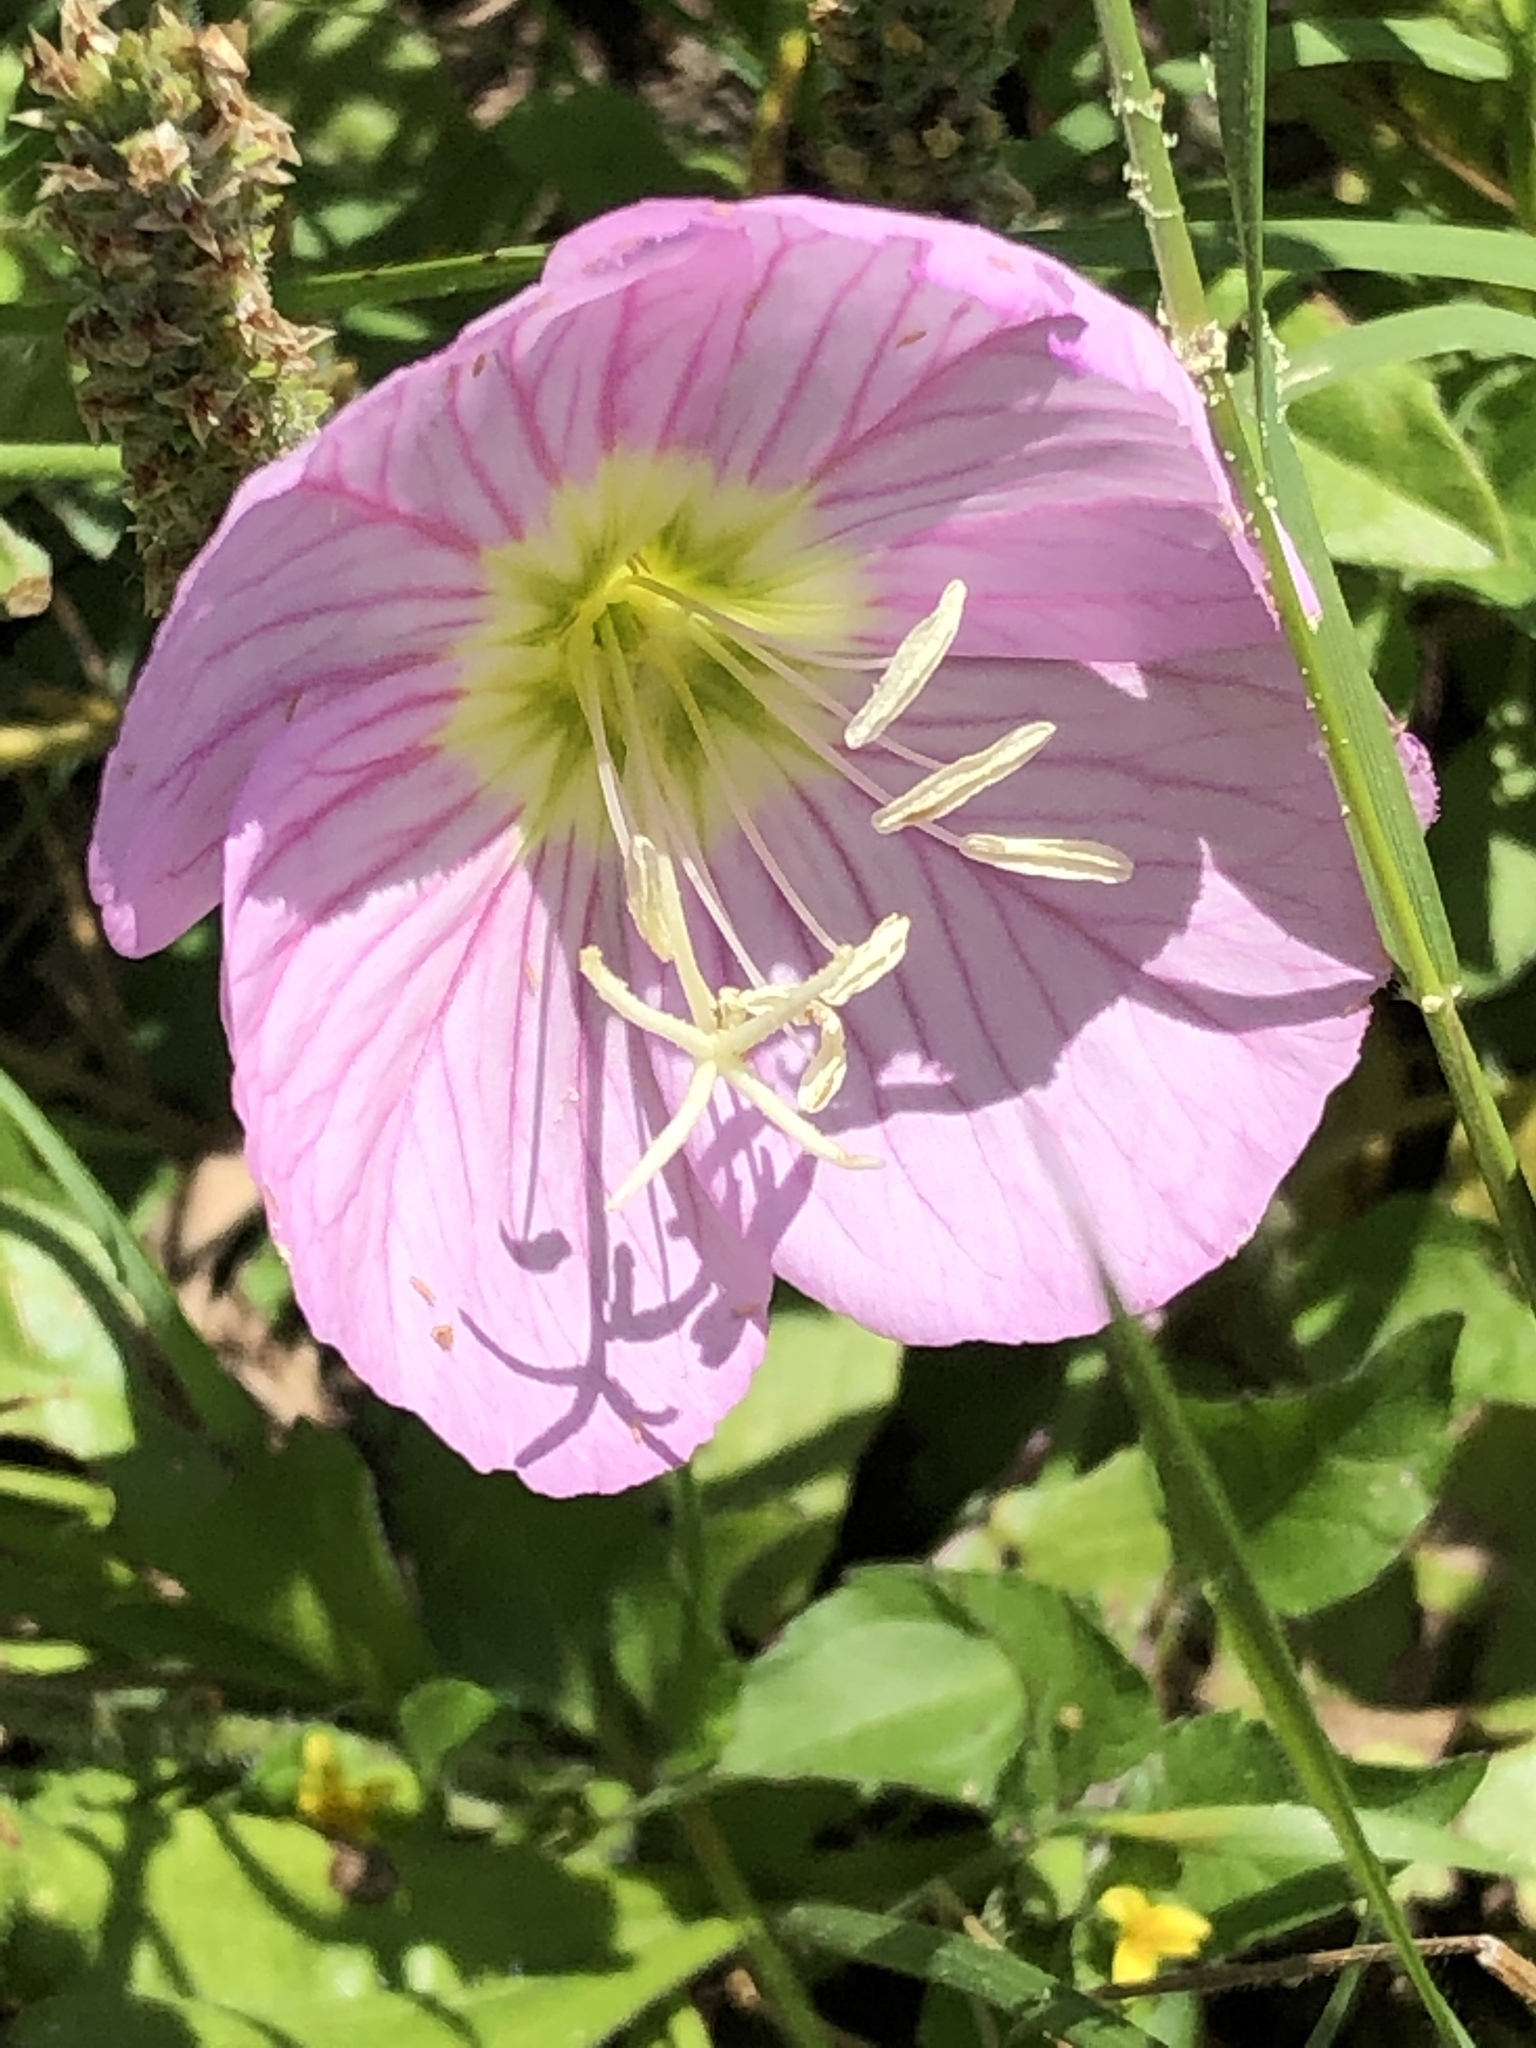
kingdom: Plantae
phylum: Tracheophyta
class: Magnoliopsida
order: Myrtales
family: Onagraceae
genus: Oenothera
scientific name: Oenothera speciosa
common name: White evening-primrose
